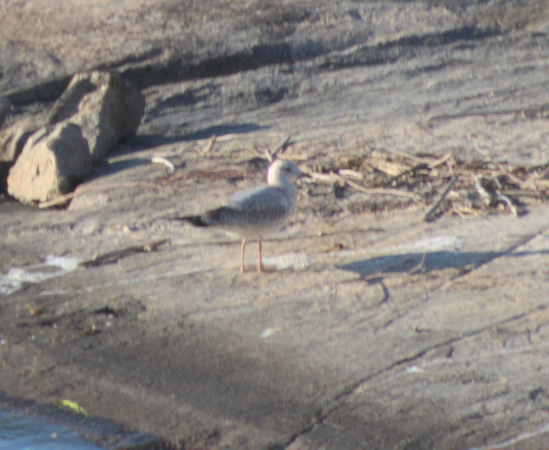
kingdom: Animalia
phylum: Chordata
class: Aves
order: Charadriiformes
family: Laridae
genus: Larus
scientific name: Larus delawarensis
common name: Ring-billed gull
